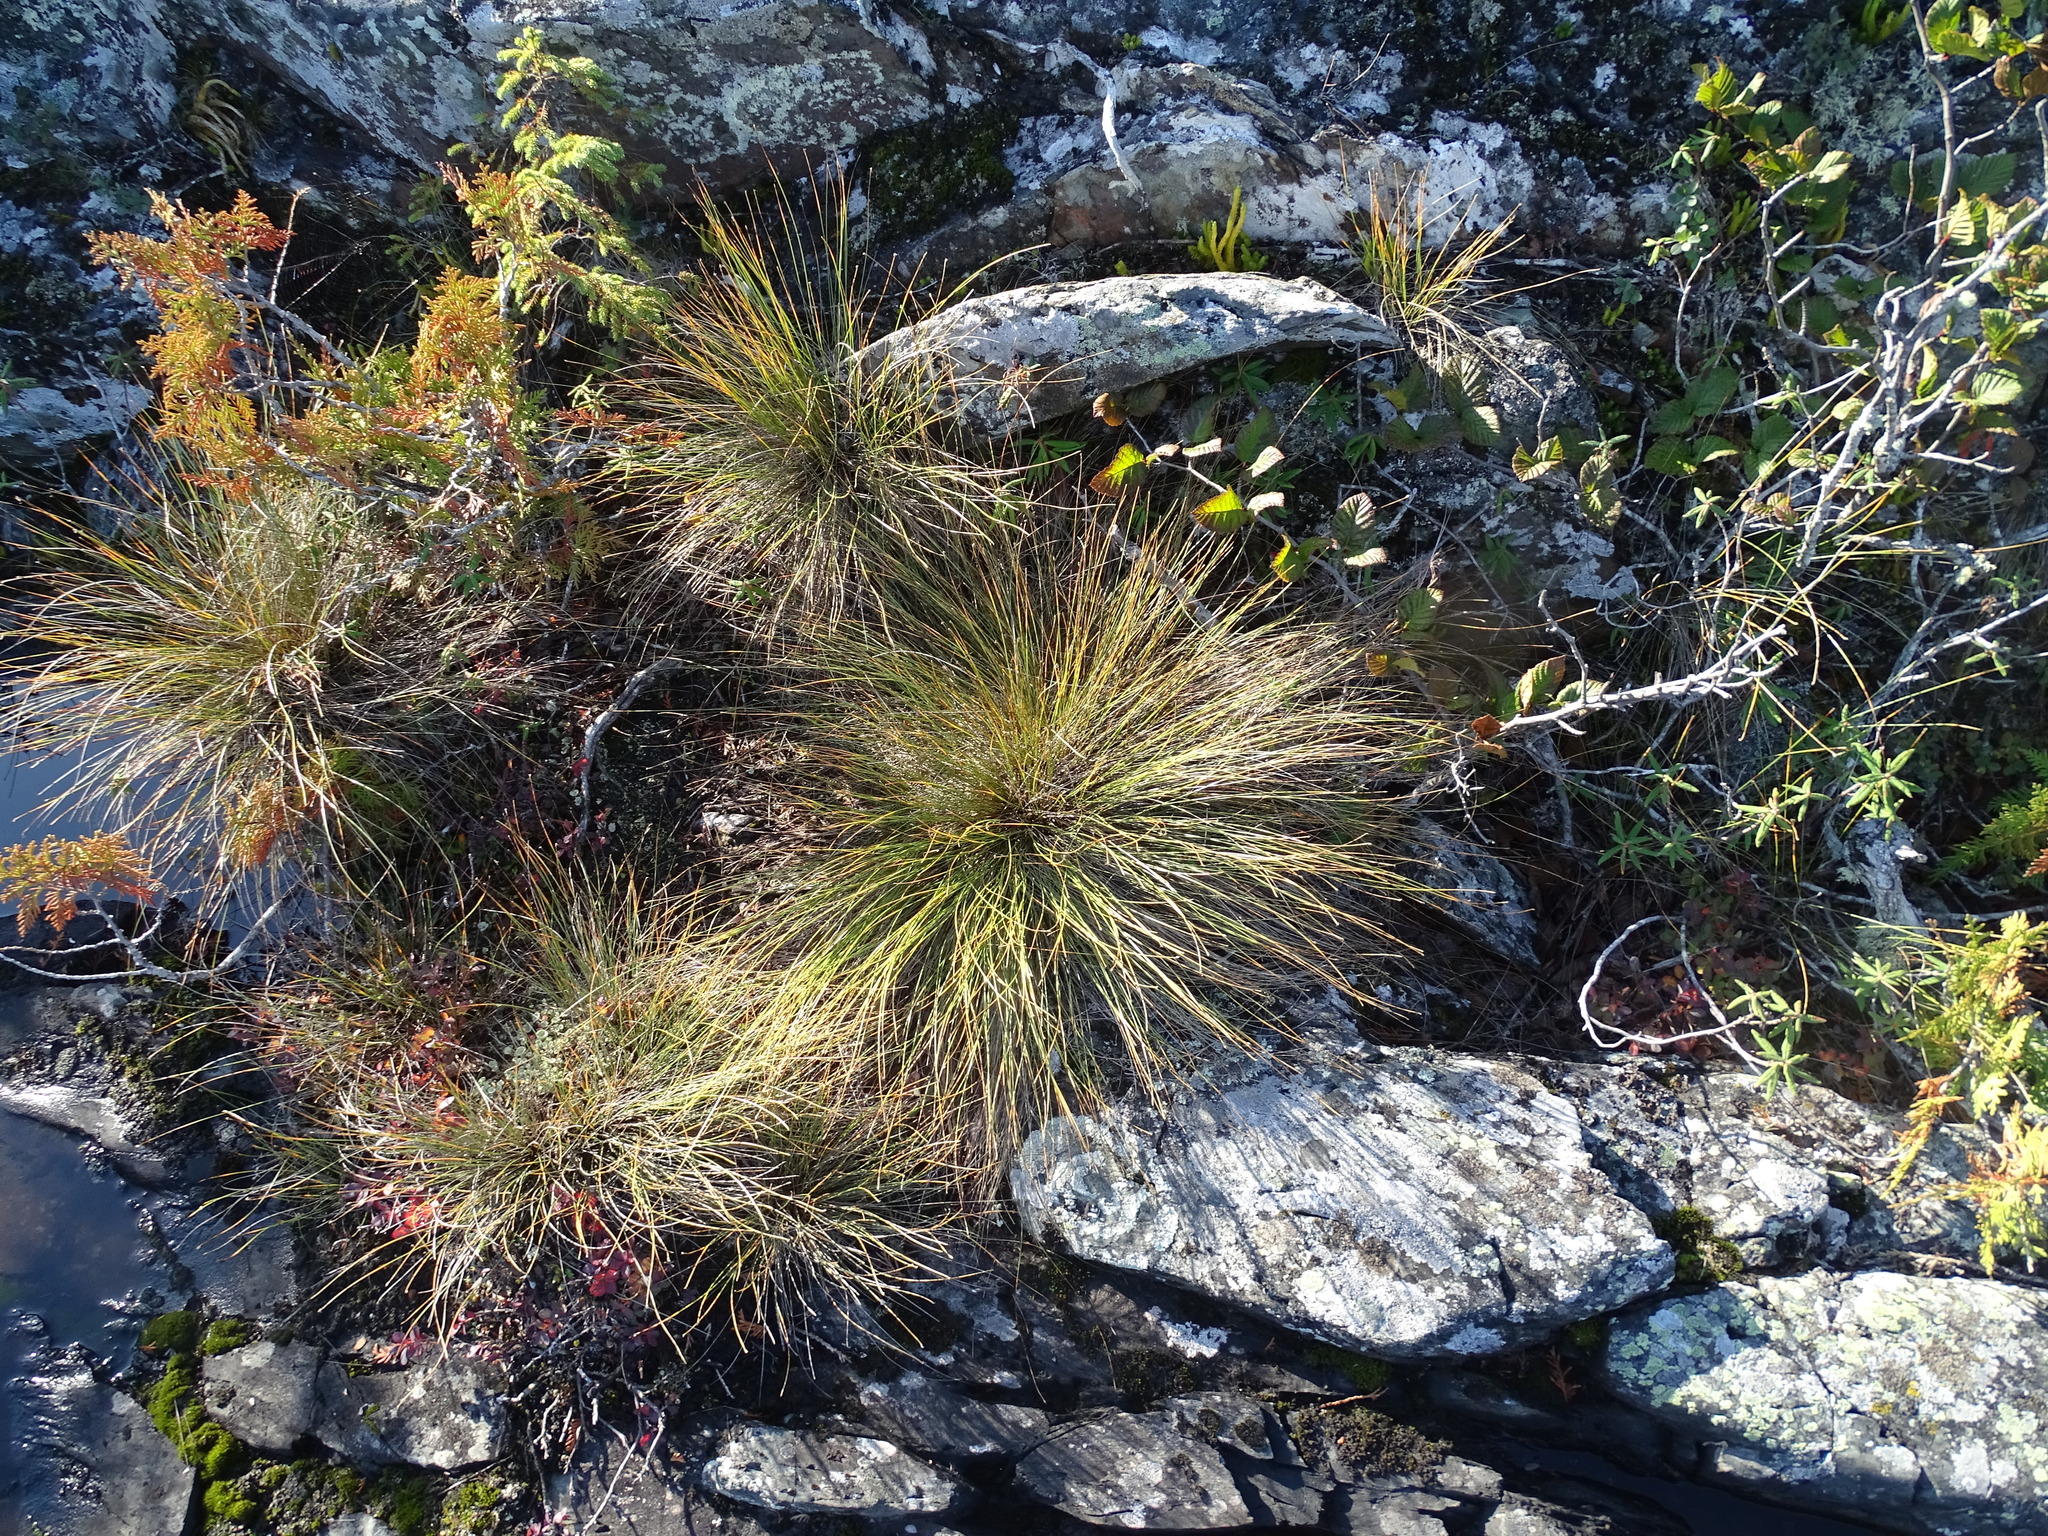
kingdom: Plantae
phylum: Tracheophyta
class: Liliopsida
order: Poales
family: Cyperaceae
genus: Trichophorum
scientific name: Trichophorum cespitosum
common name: Cespitose bulrush
